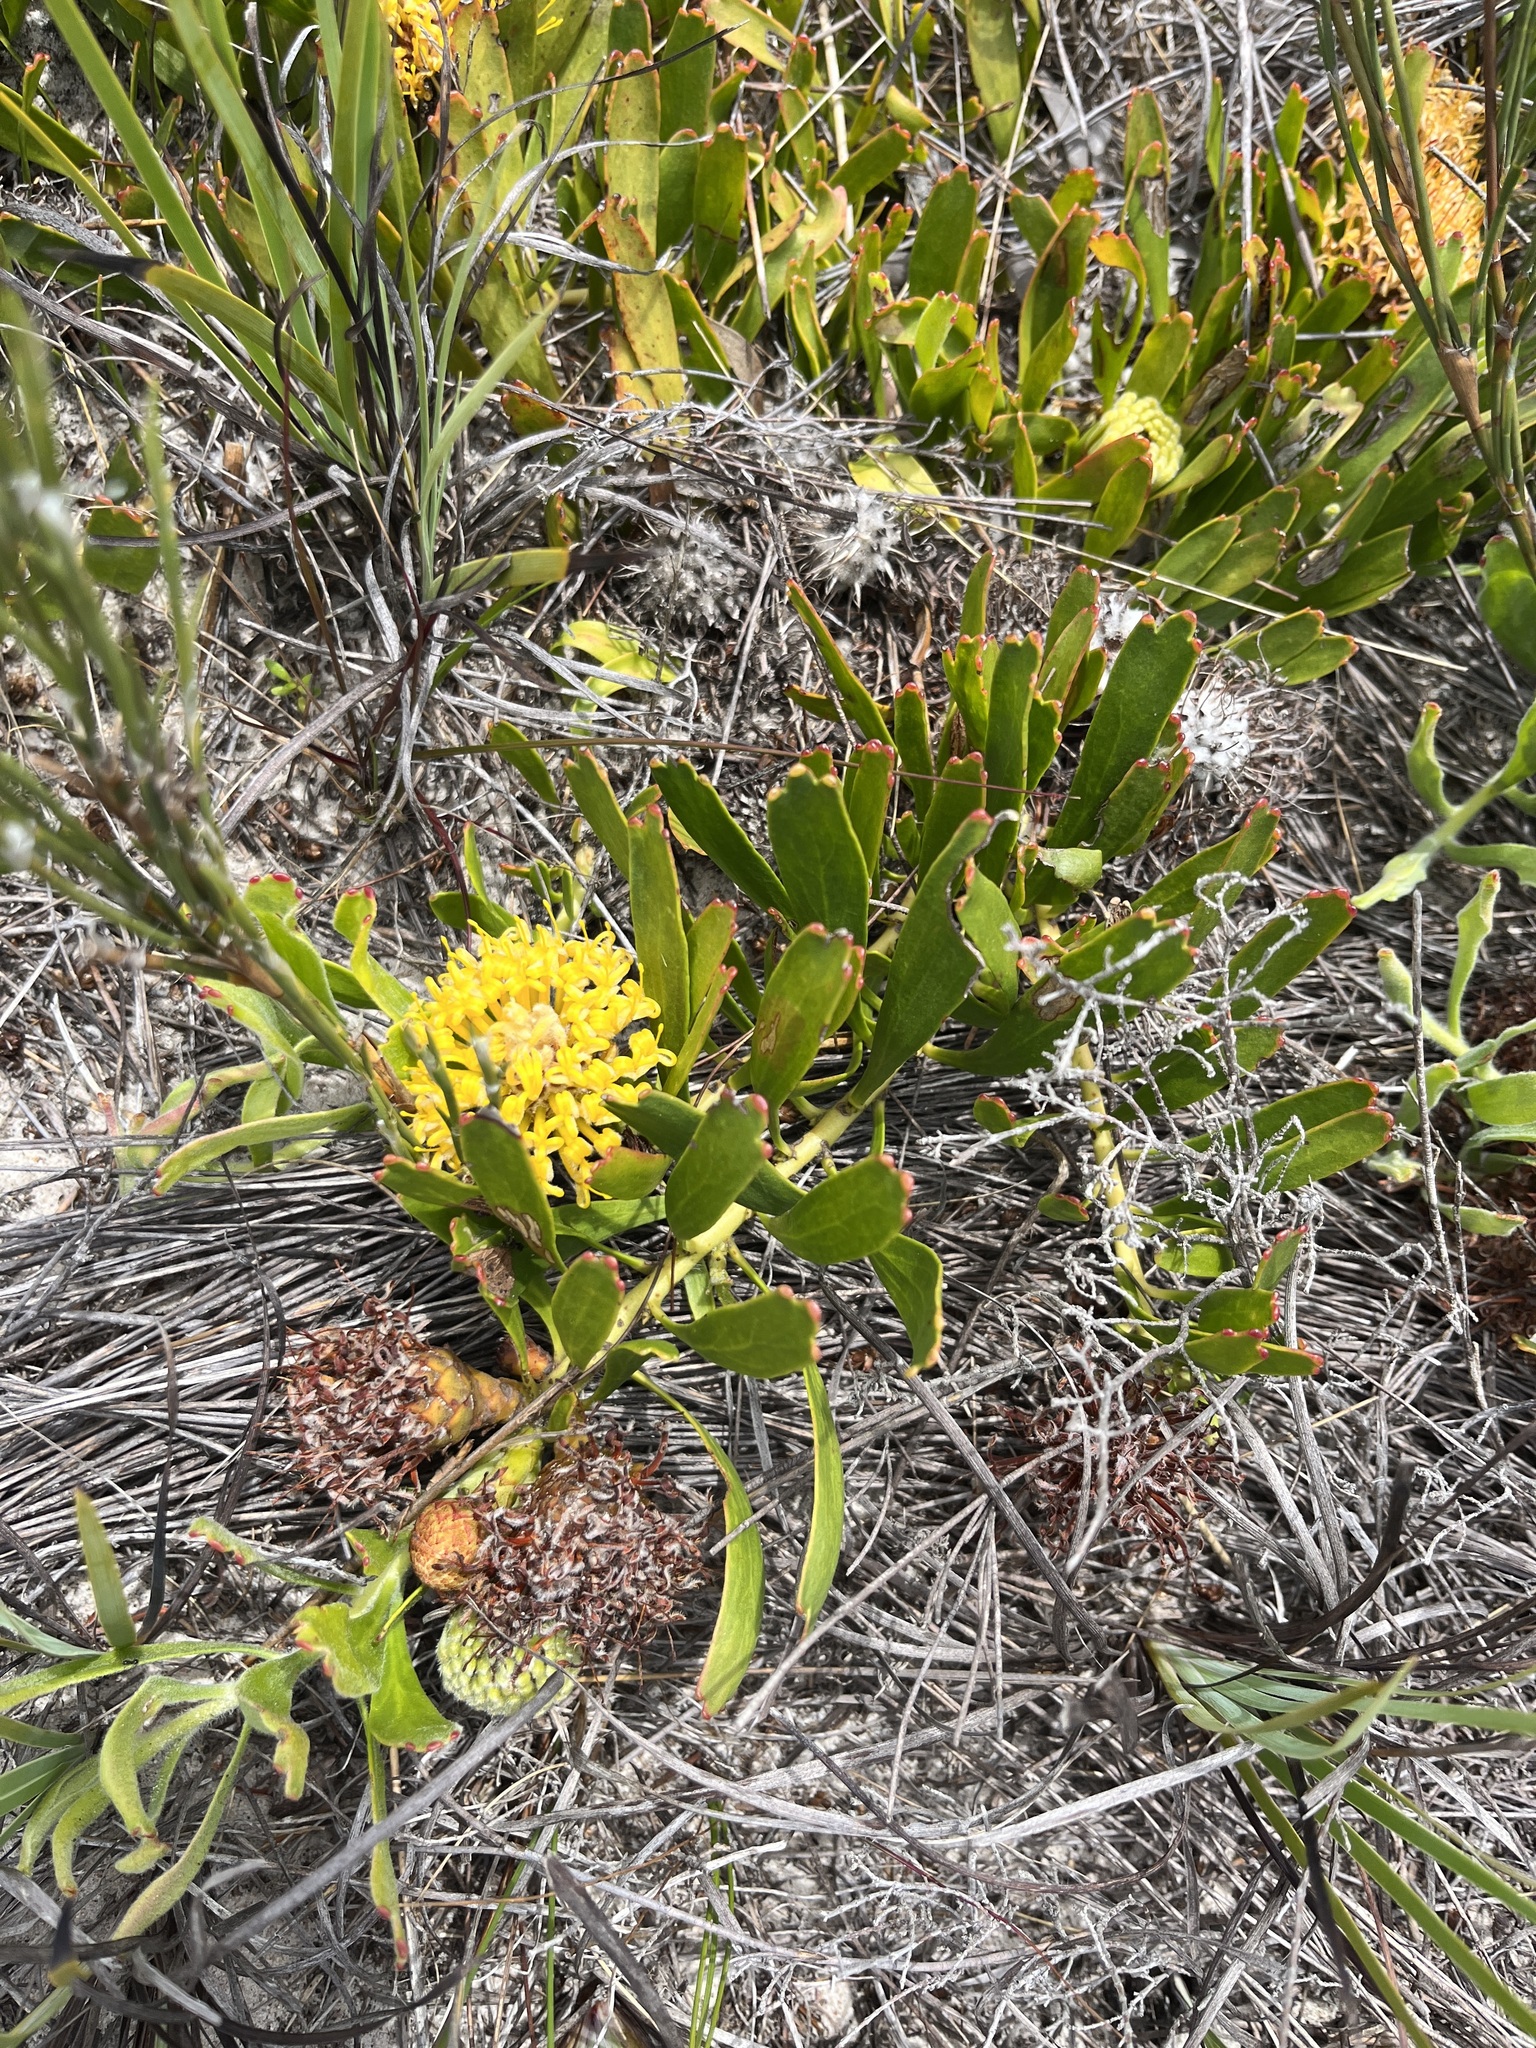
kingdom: Plantae
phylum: Tracheophyta
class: Magnoliopsida
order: Proteales
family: Proteaceae
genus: Leucospermum
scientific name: Leucospermum hypophyllocarpodendron
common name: Snakestem pincushion
